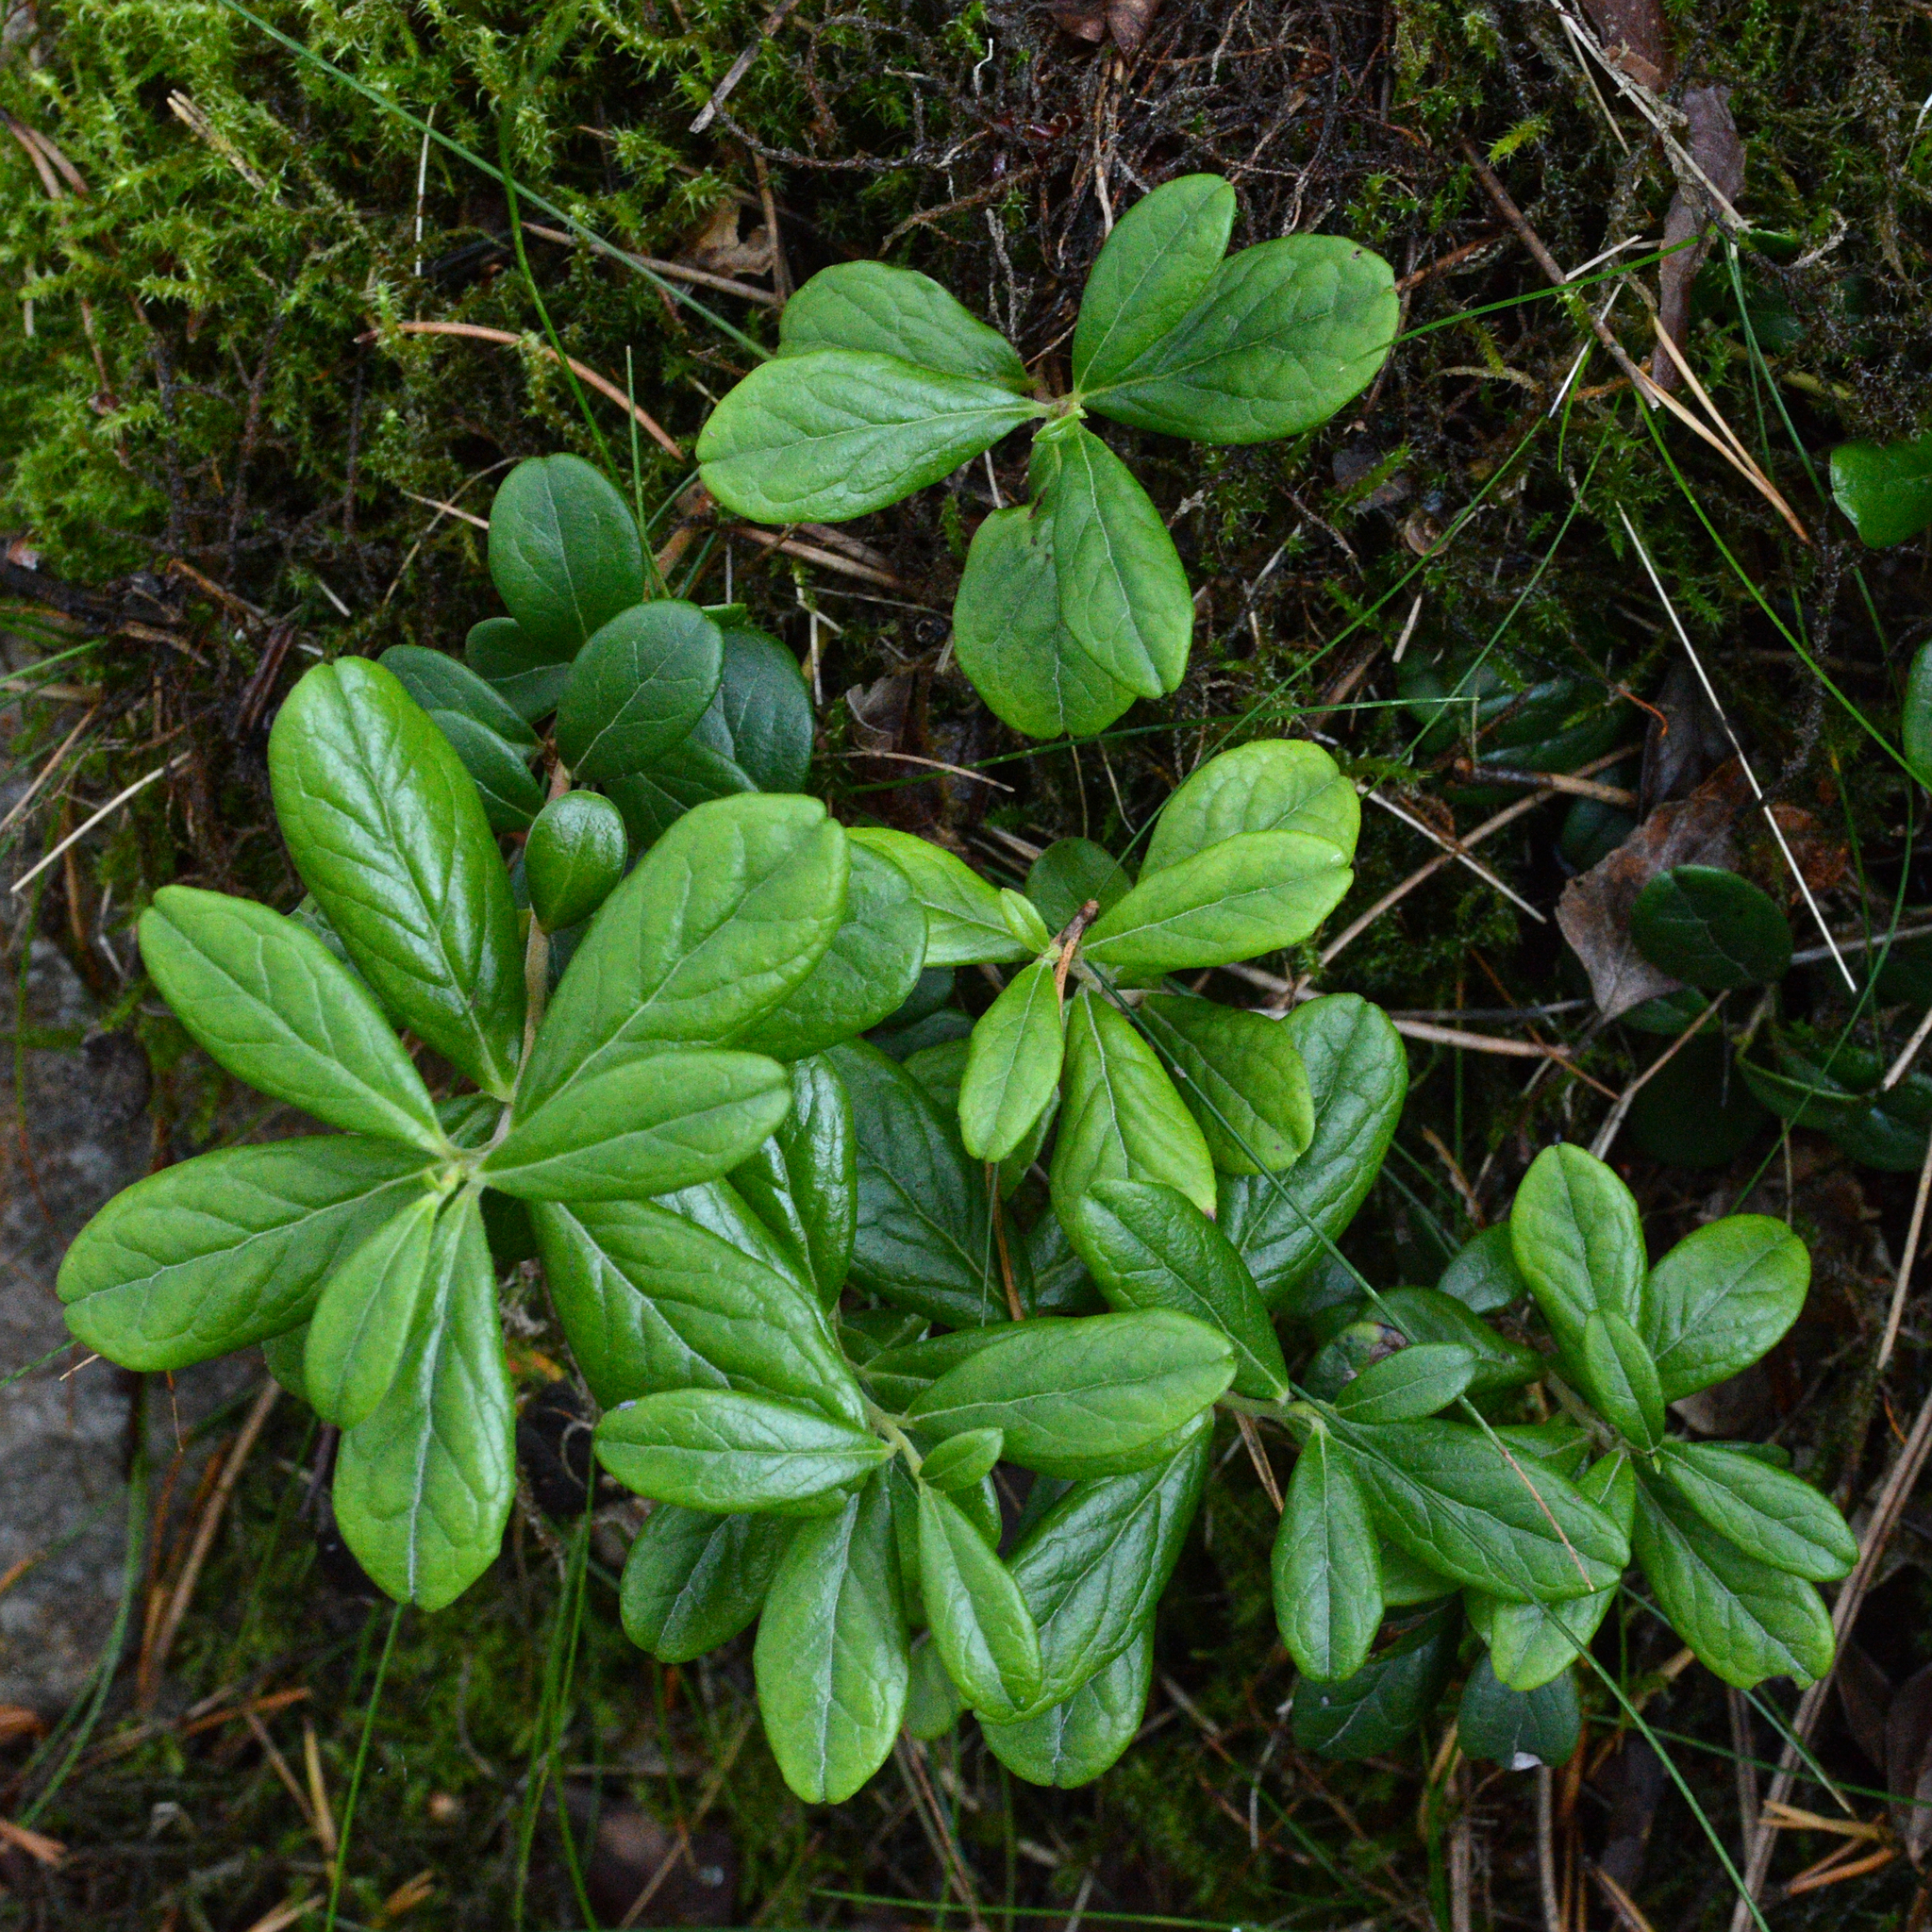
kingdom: Plantae
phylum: Tracheophyta
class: Magnoliopsida
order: Ericales
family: Ericaceae
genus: Vaccinium
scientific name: Vaccinium vitis-idaea
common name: Cowberry
